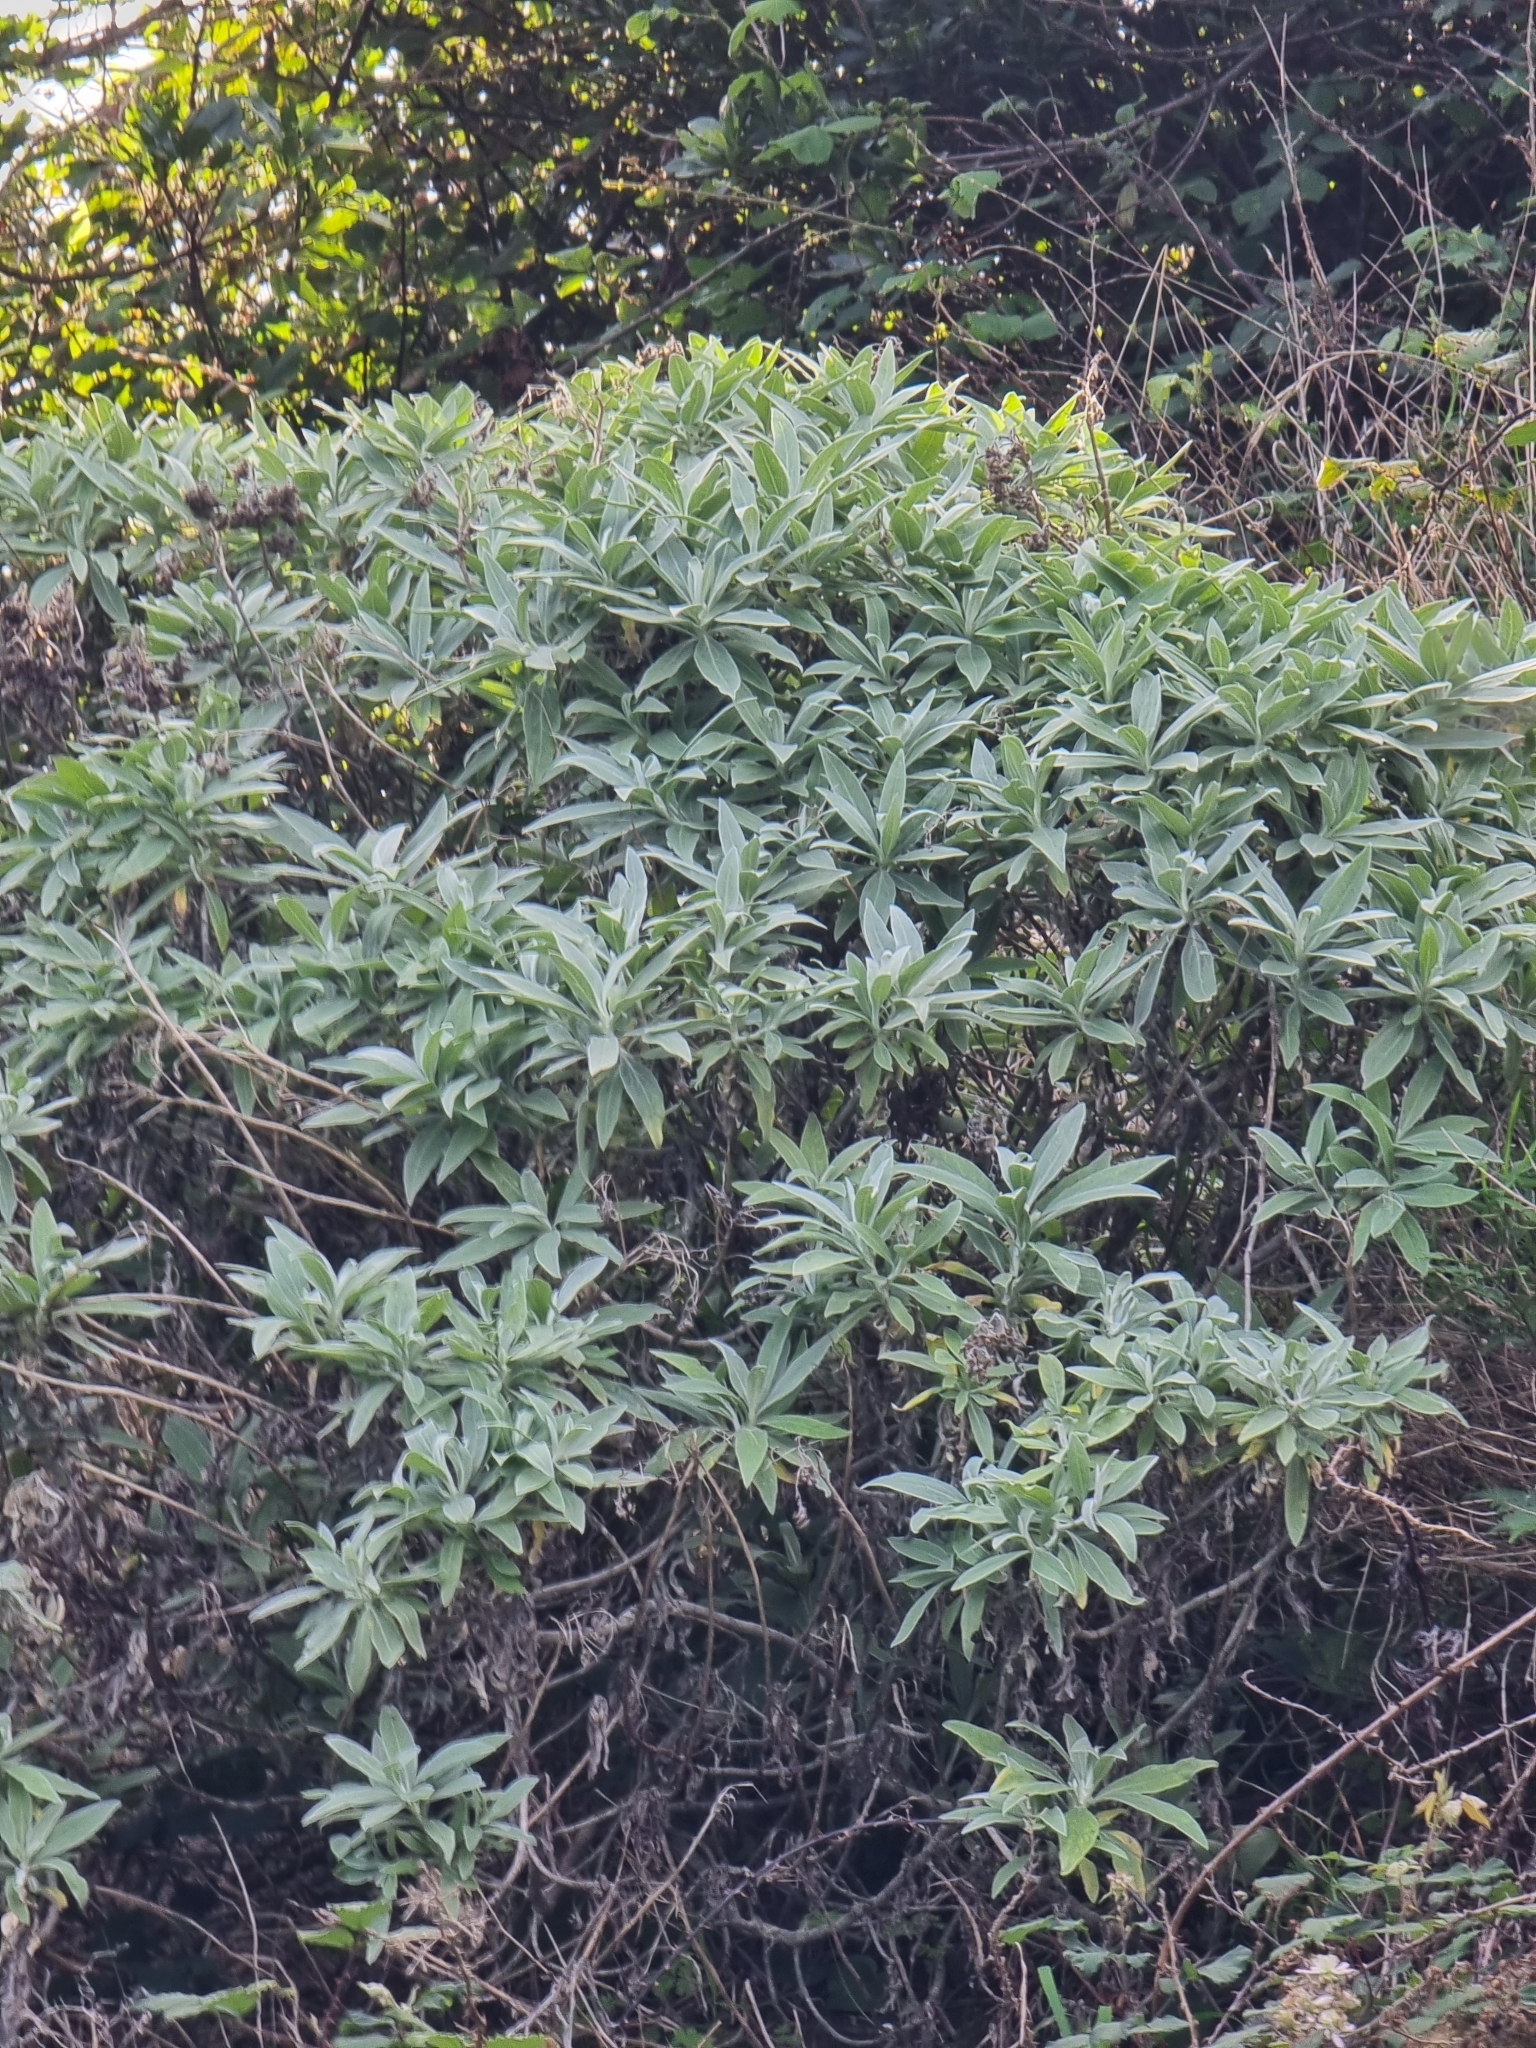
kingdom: Plantae
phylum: Tracheophyta
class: Magnoliopsida
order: Asterales
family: Asteraceae
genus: Helichrysum
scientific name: Helichrysum melaleucum
